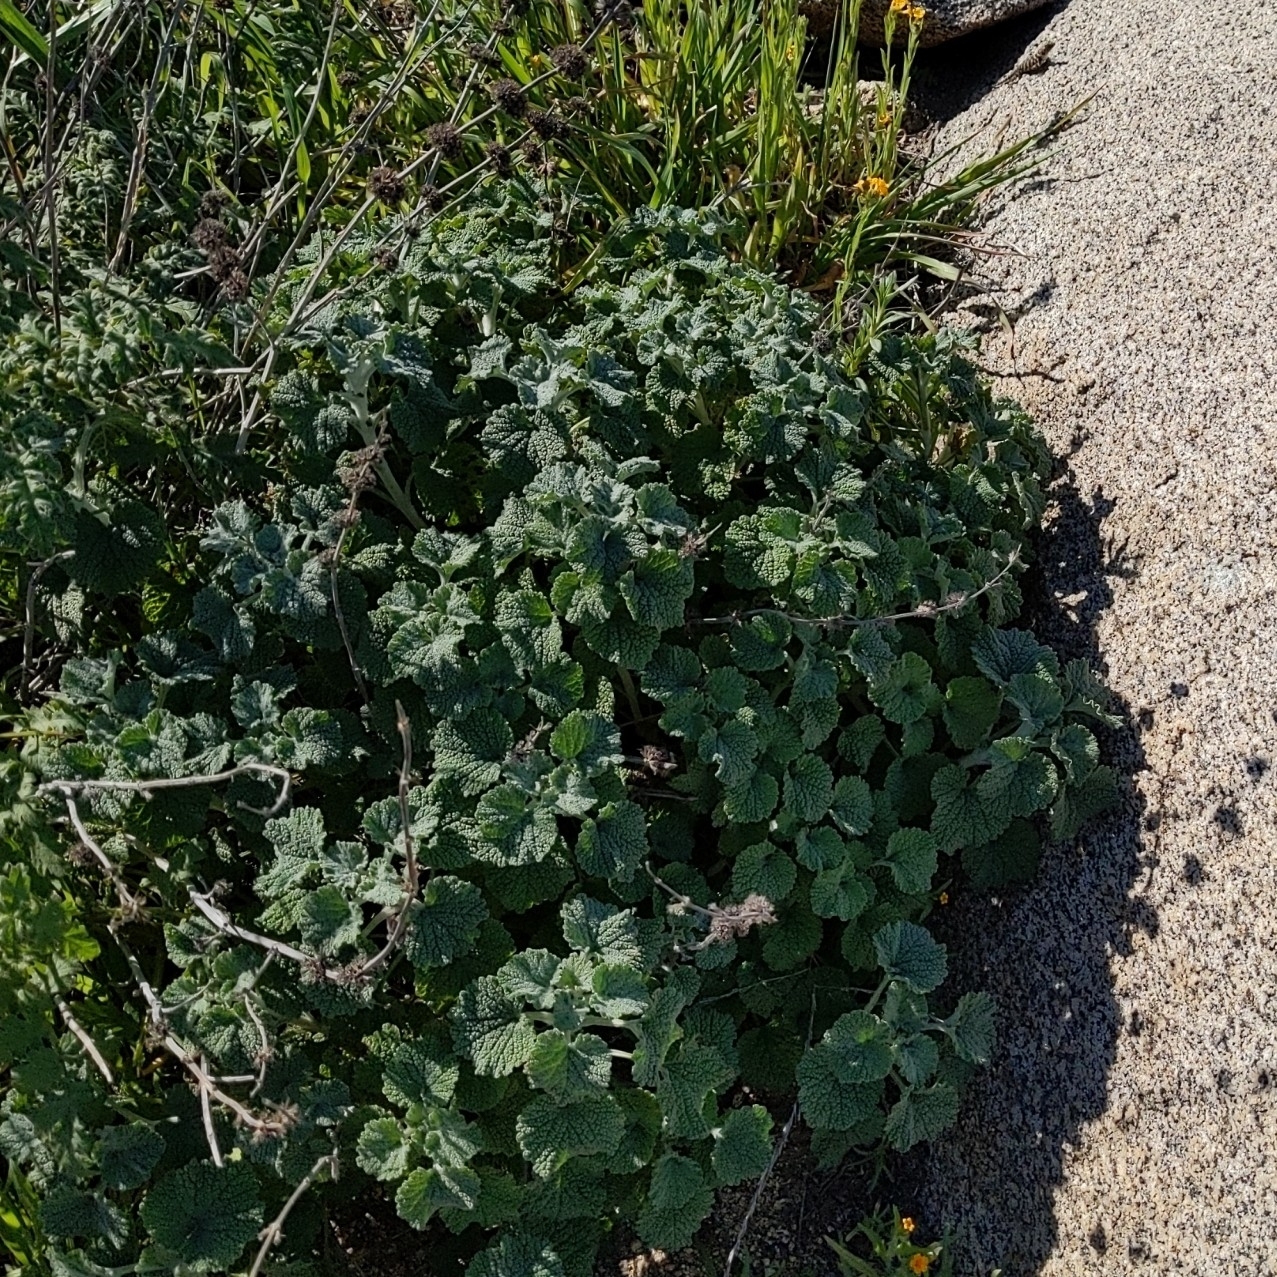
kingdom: Plantae
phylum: Tracheophyta
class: Magnoliopsida
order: Lamiales
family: Lamiaceae
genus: Marrubium
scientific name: Marrubium vulgare
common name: Horehound
